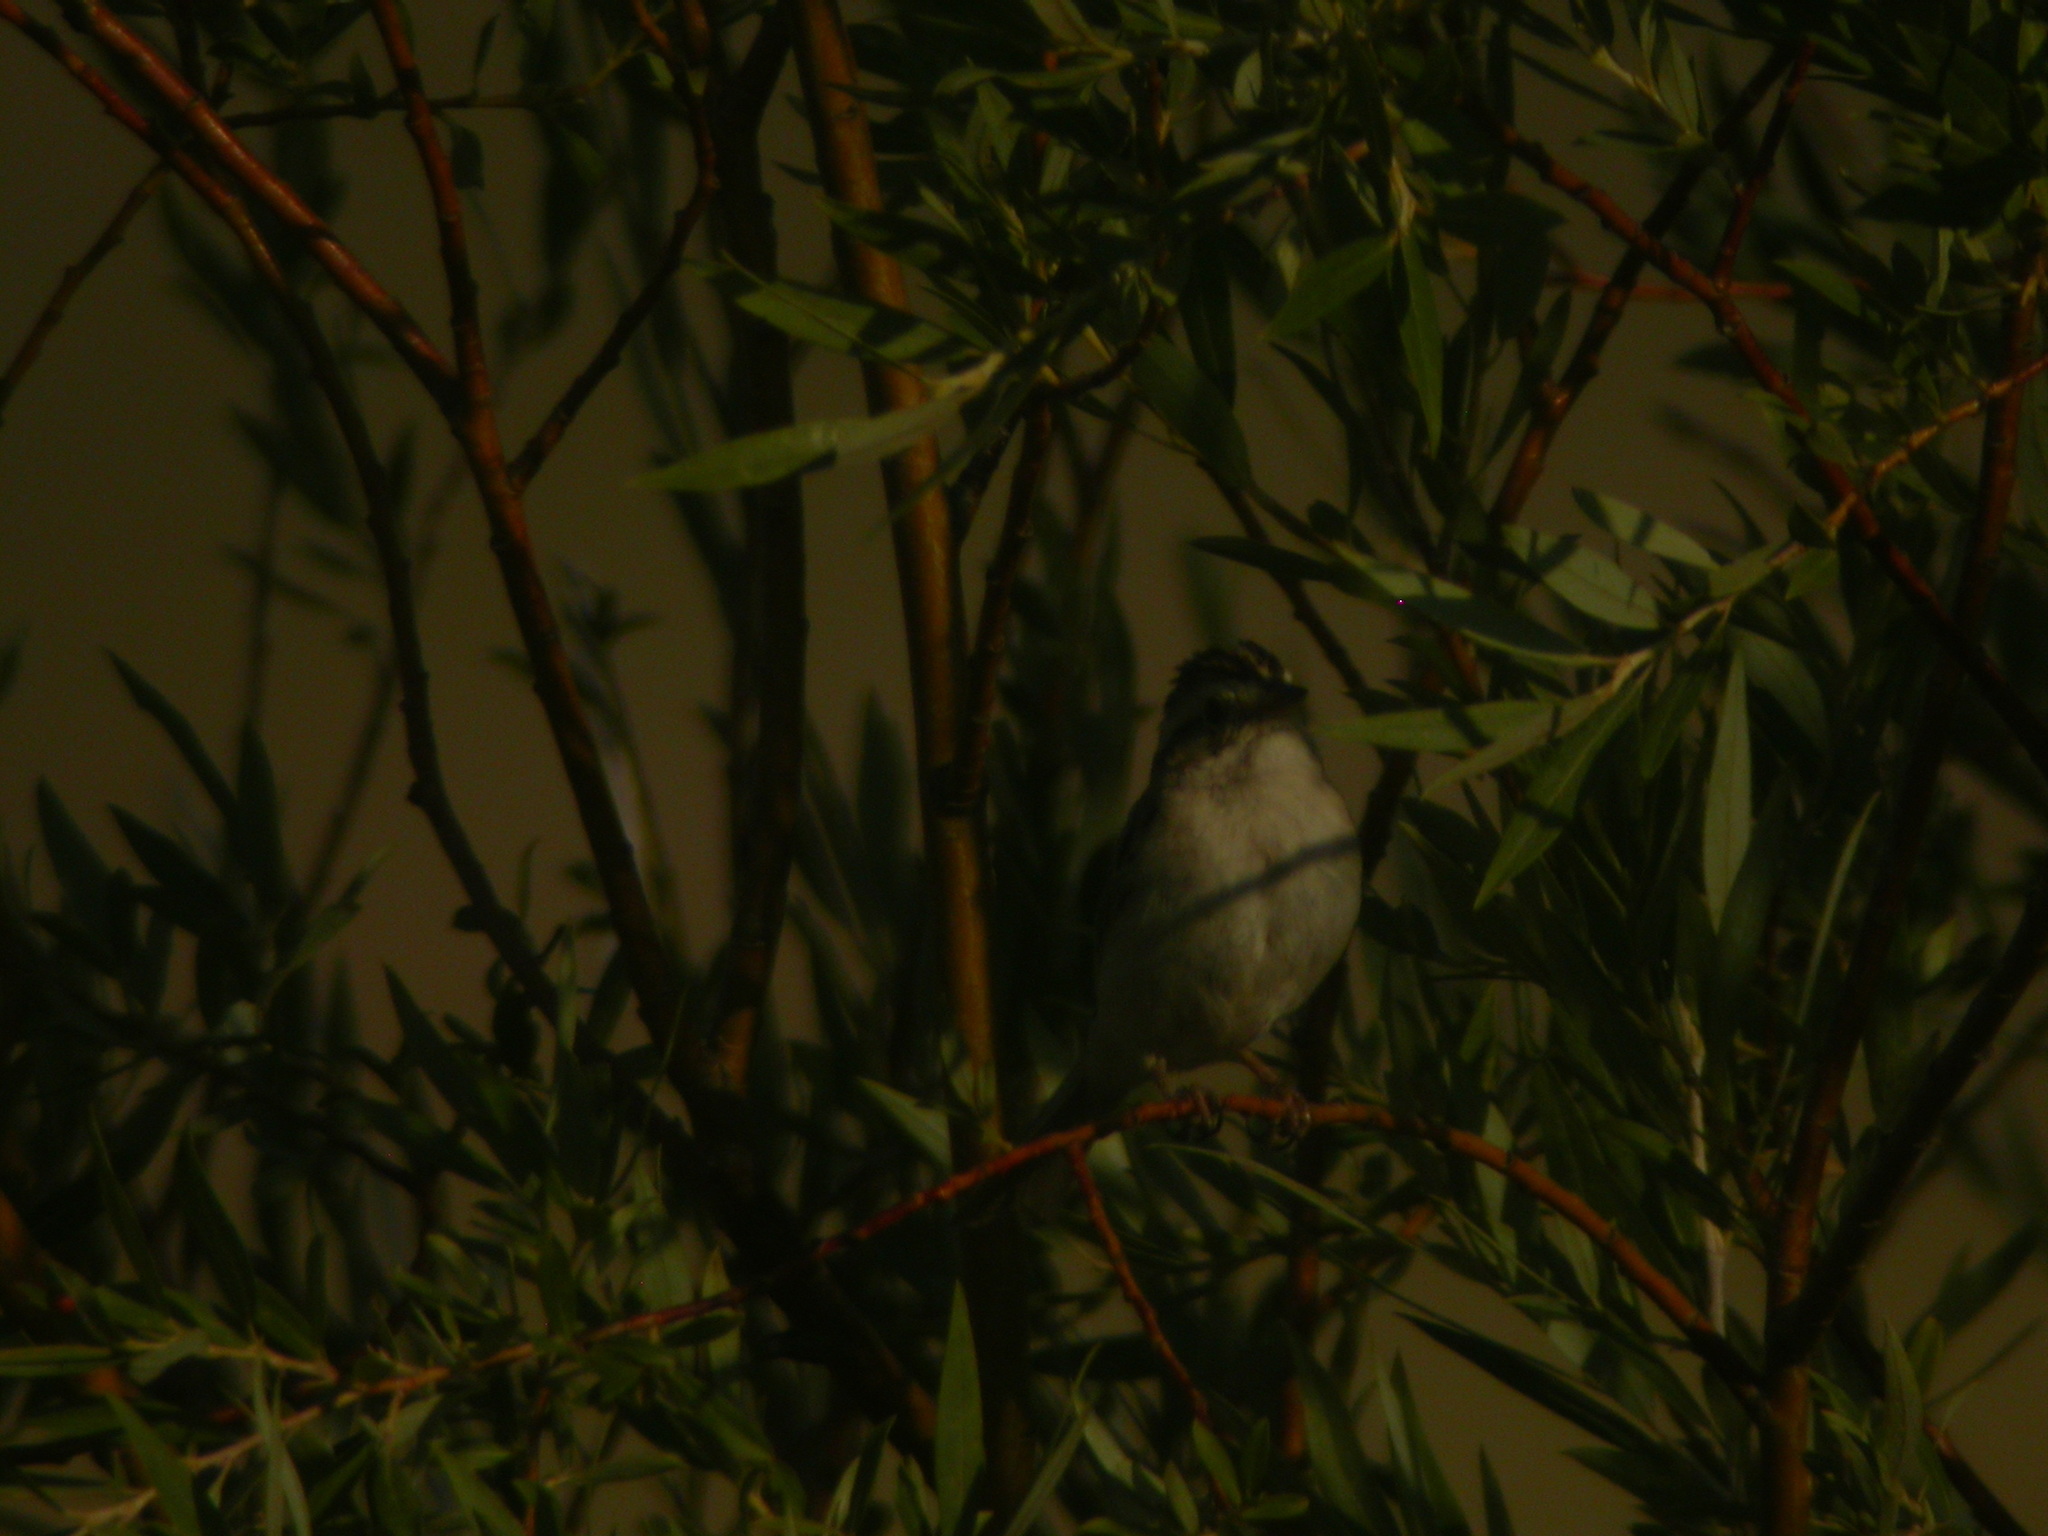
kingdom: Animalia
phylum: Chordata
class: Aves
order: Passeriformes
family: Passerellidae
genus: Spizella
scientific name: Spizella breweri
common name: Brewer's sparrow
